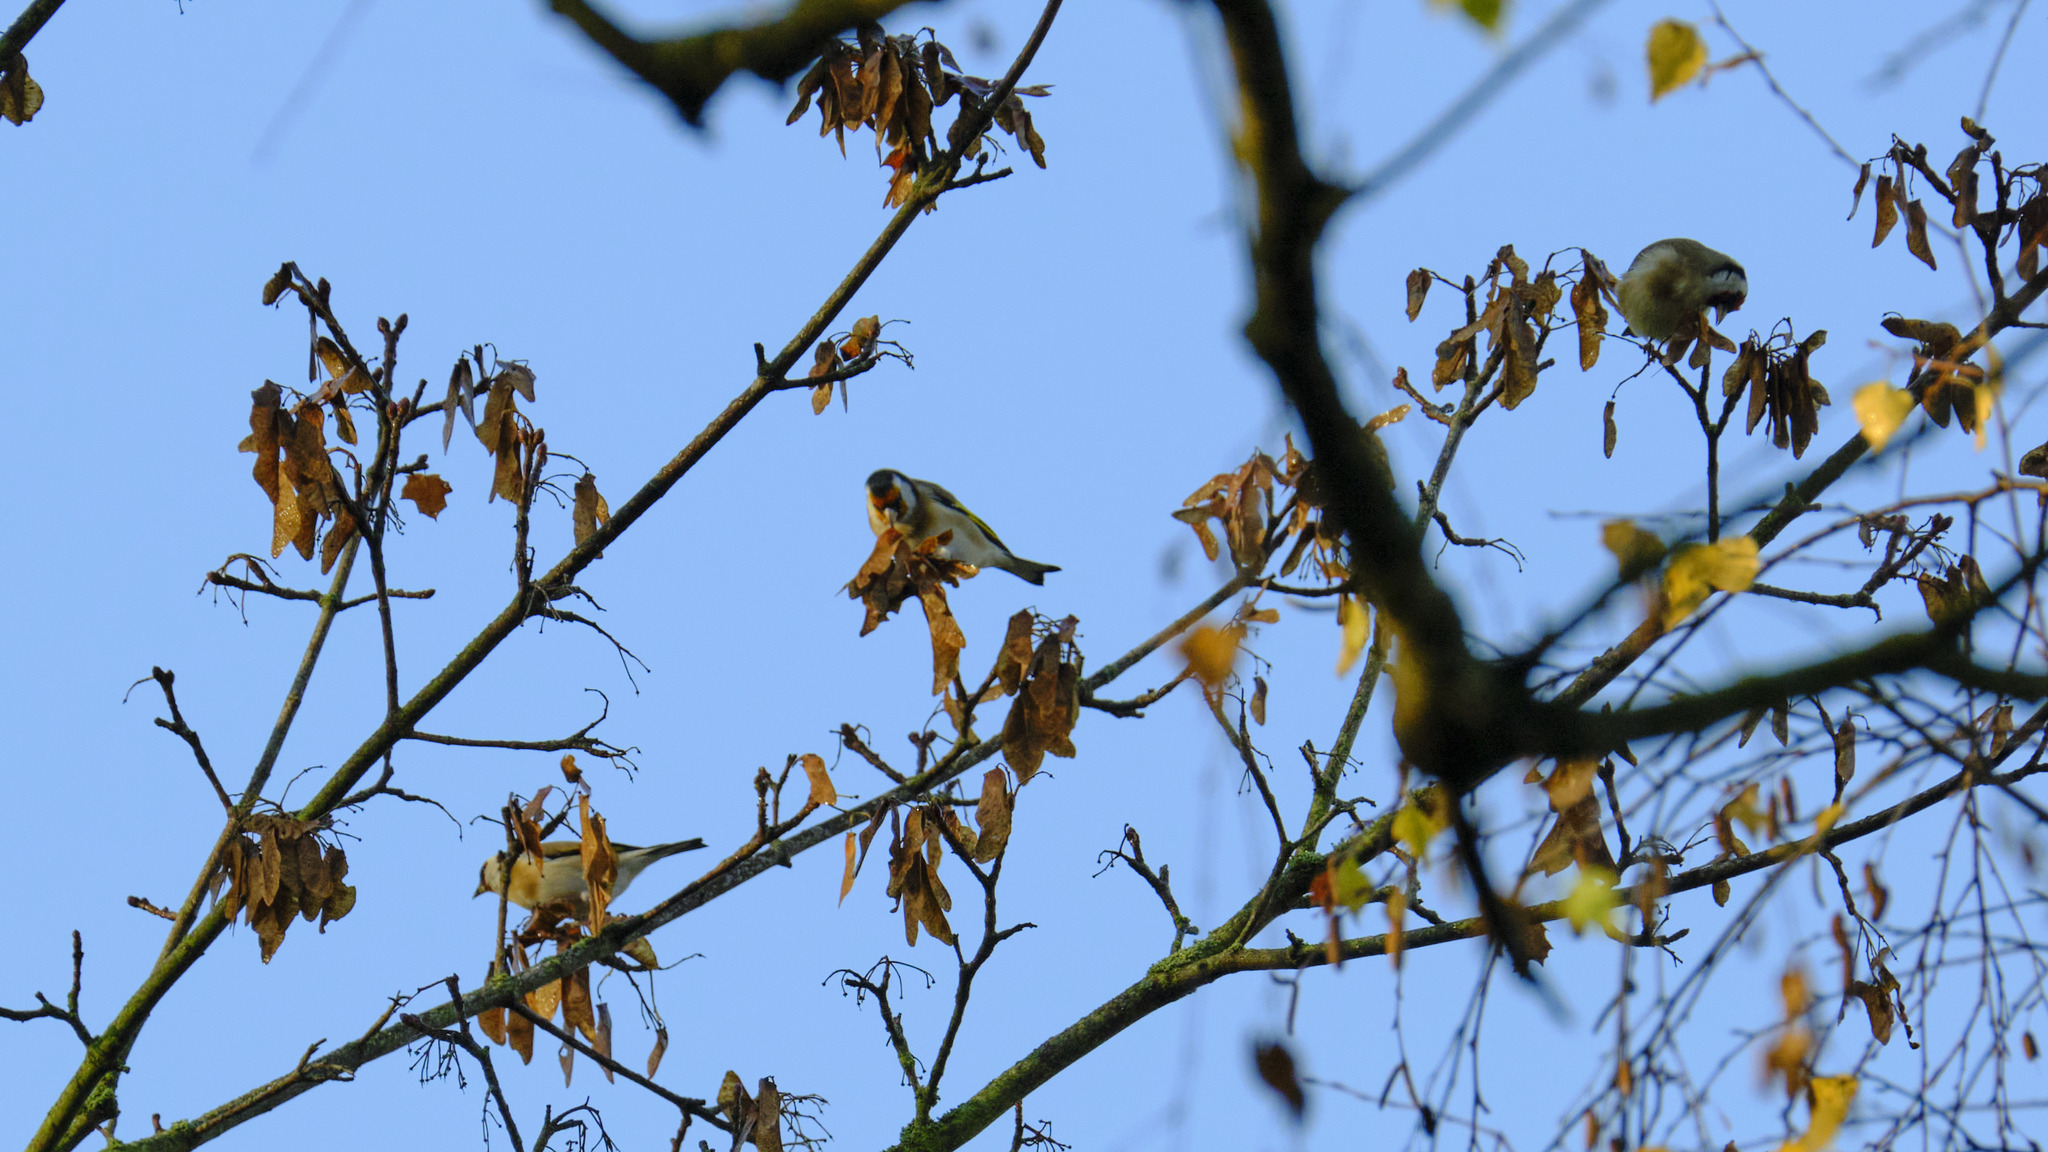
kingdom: Animalia
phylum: Chordata
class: Aves
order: Passeriformes
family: Fringillidae
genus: Carduelis
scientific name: Carduelis carduelis
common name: European goldfinch
